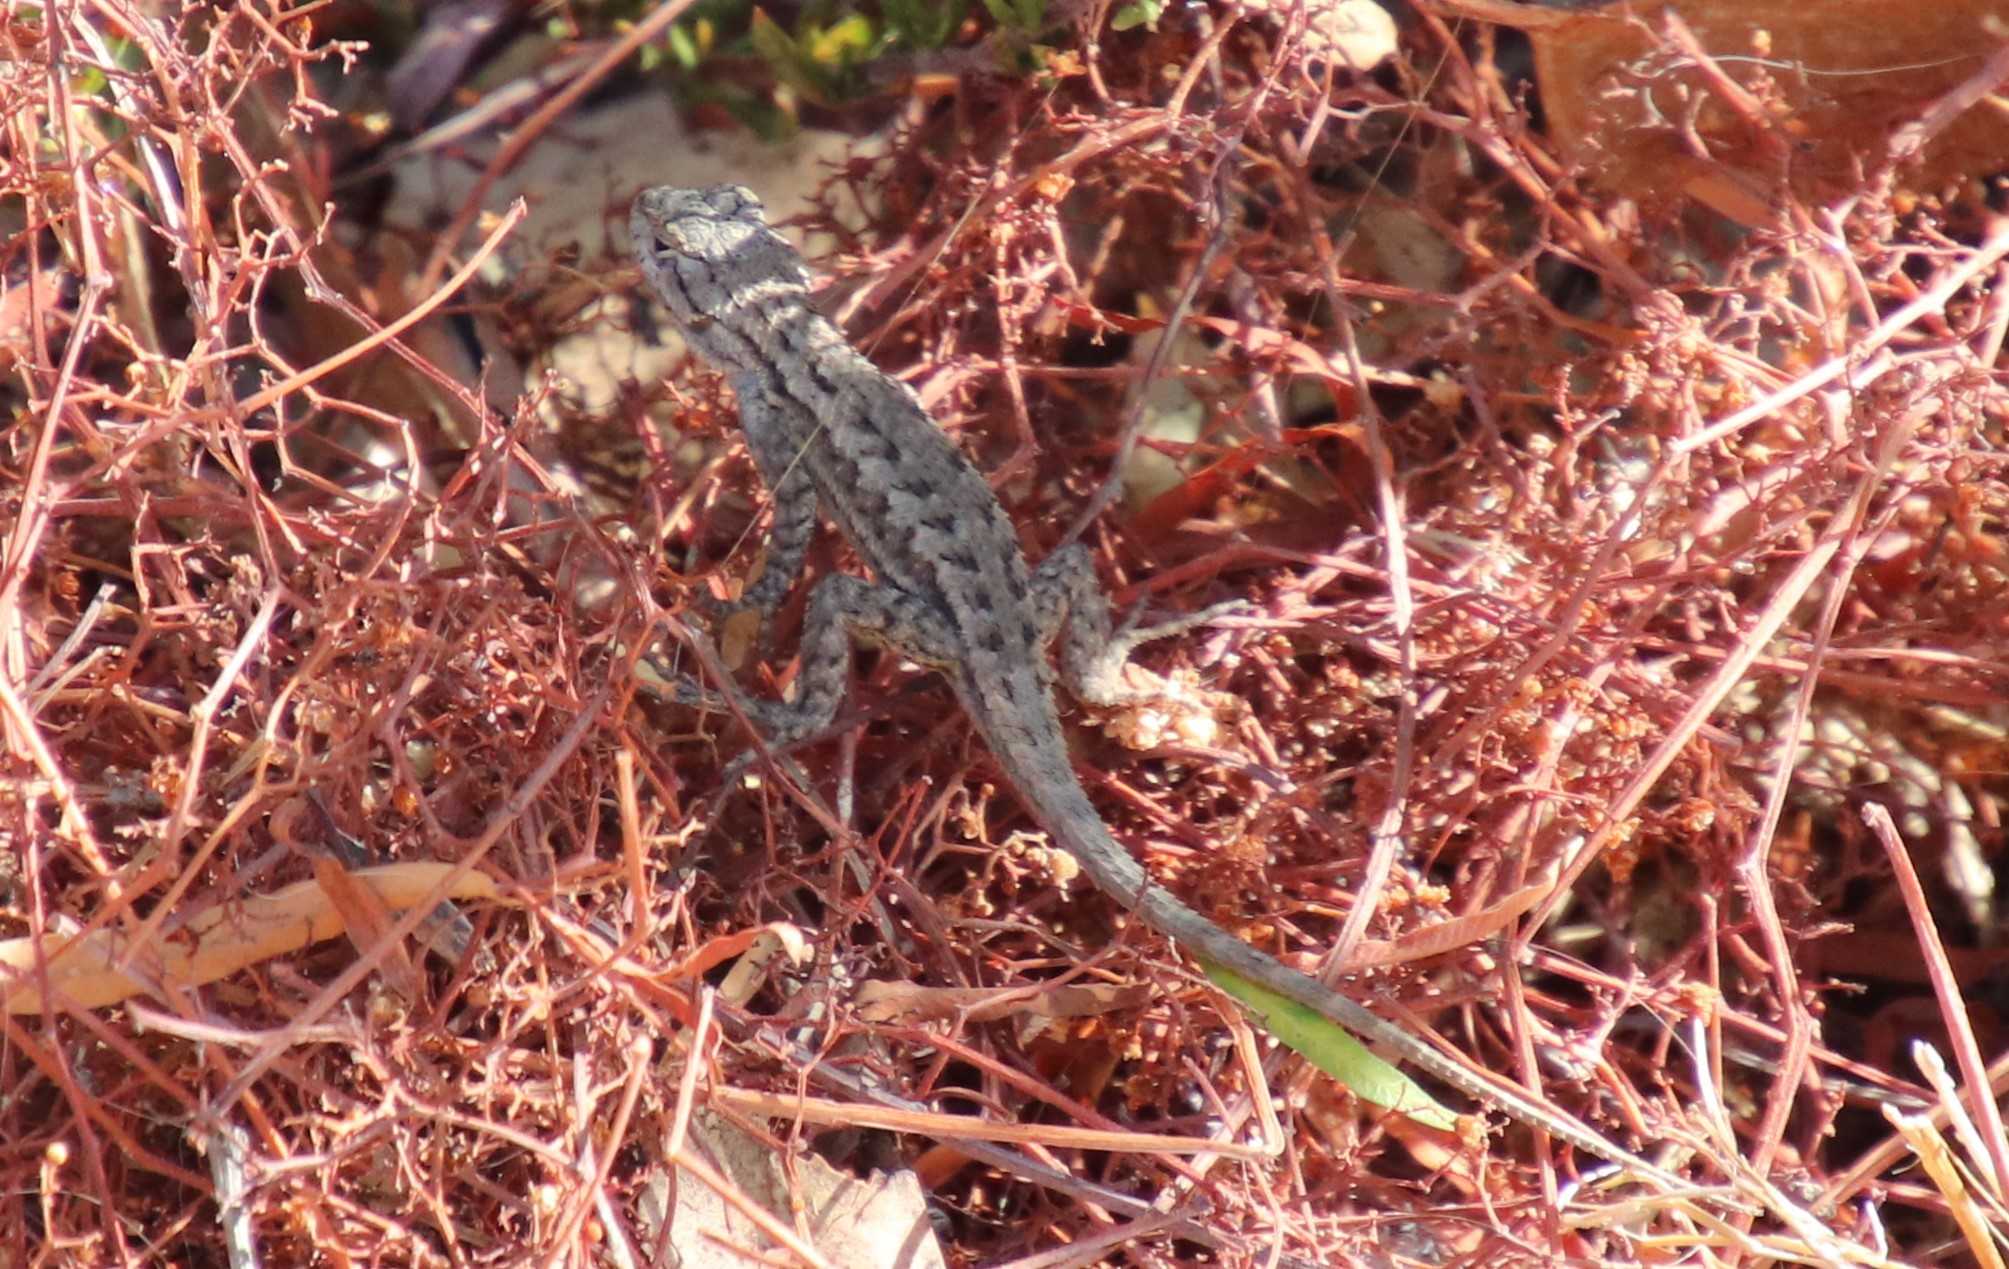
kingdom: Animalia
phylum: Chordata
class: Squamata
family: Phrynosomatidae
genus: Sceloporus
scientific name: Sceloporus occidentalis
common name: Western fence lizard
